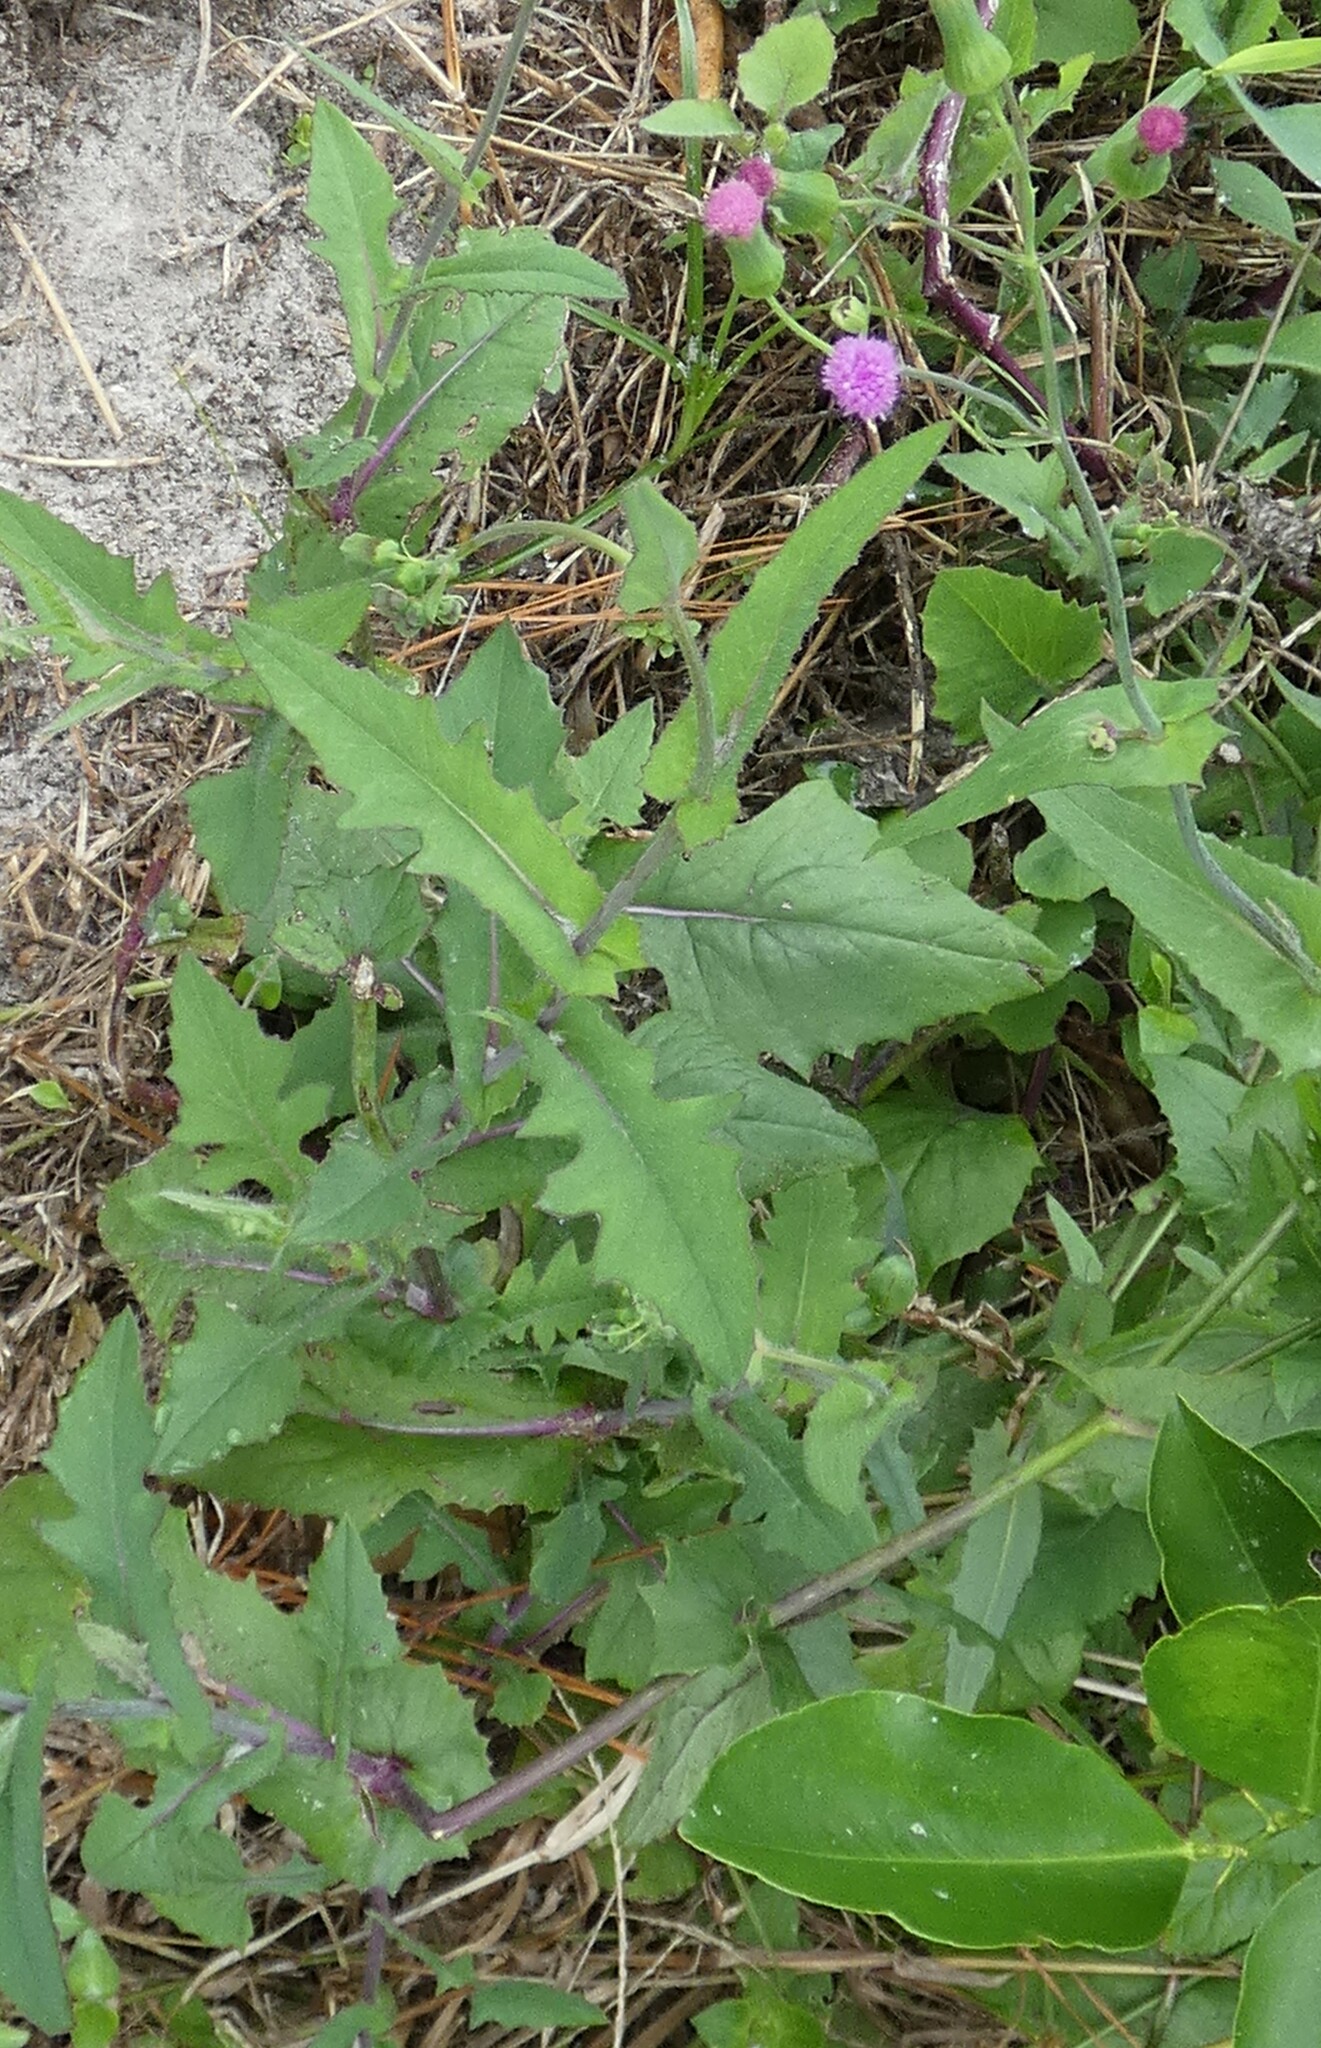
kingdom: Plantae
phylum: Tracheophyta
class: Magnoliopsida
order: Asterales
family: Asteraceae
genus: Emilia
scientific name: Emilia sonchifolia
